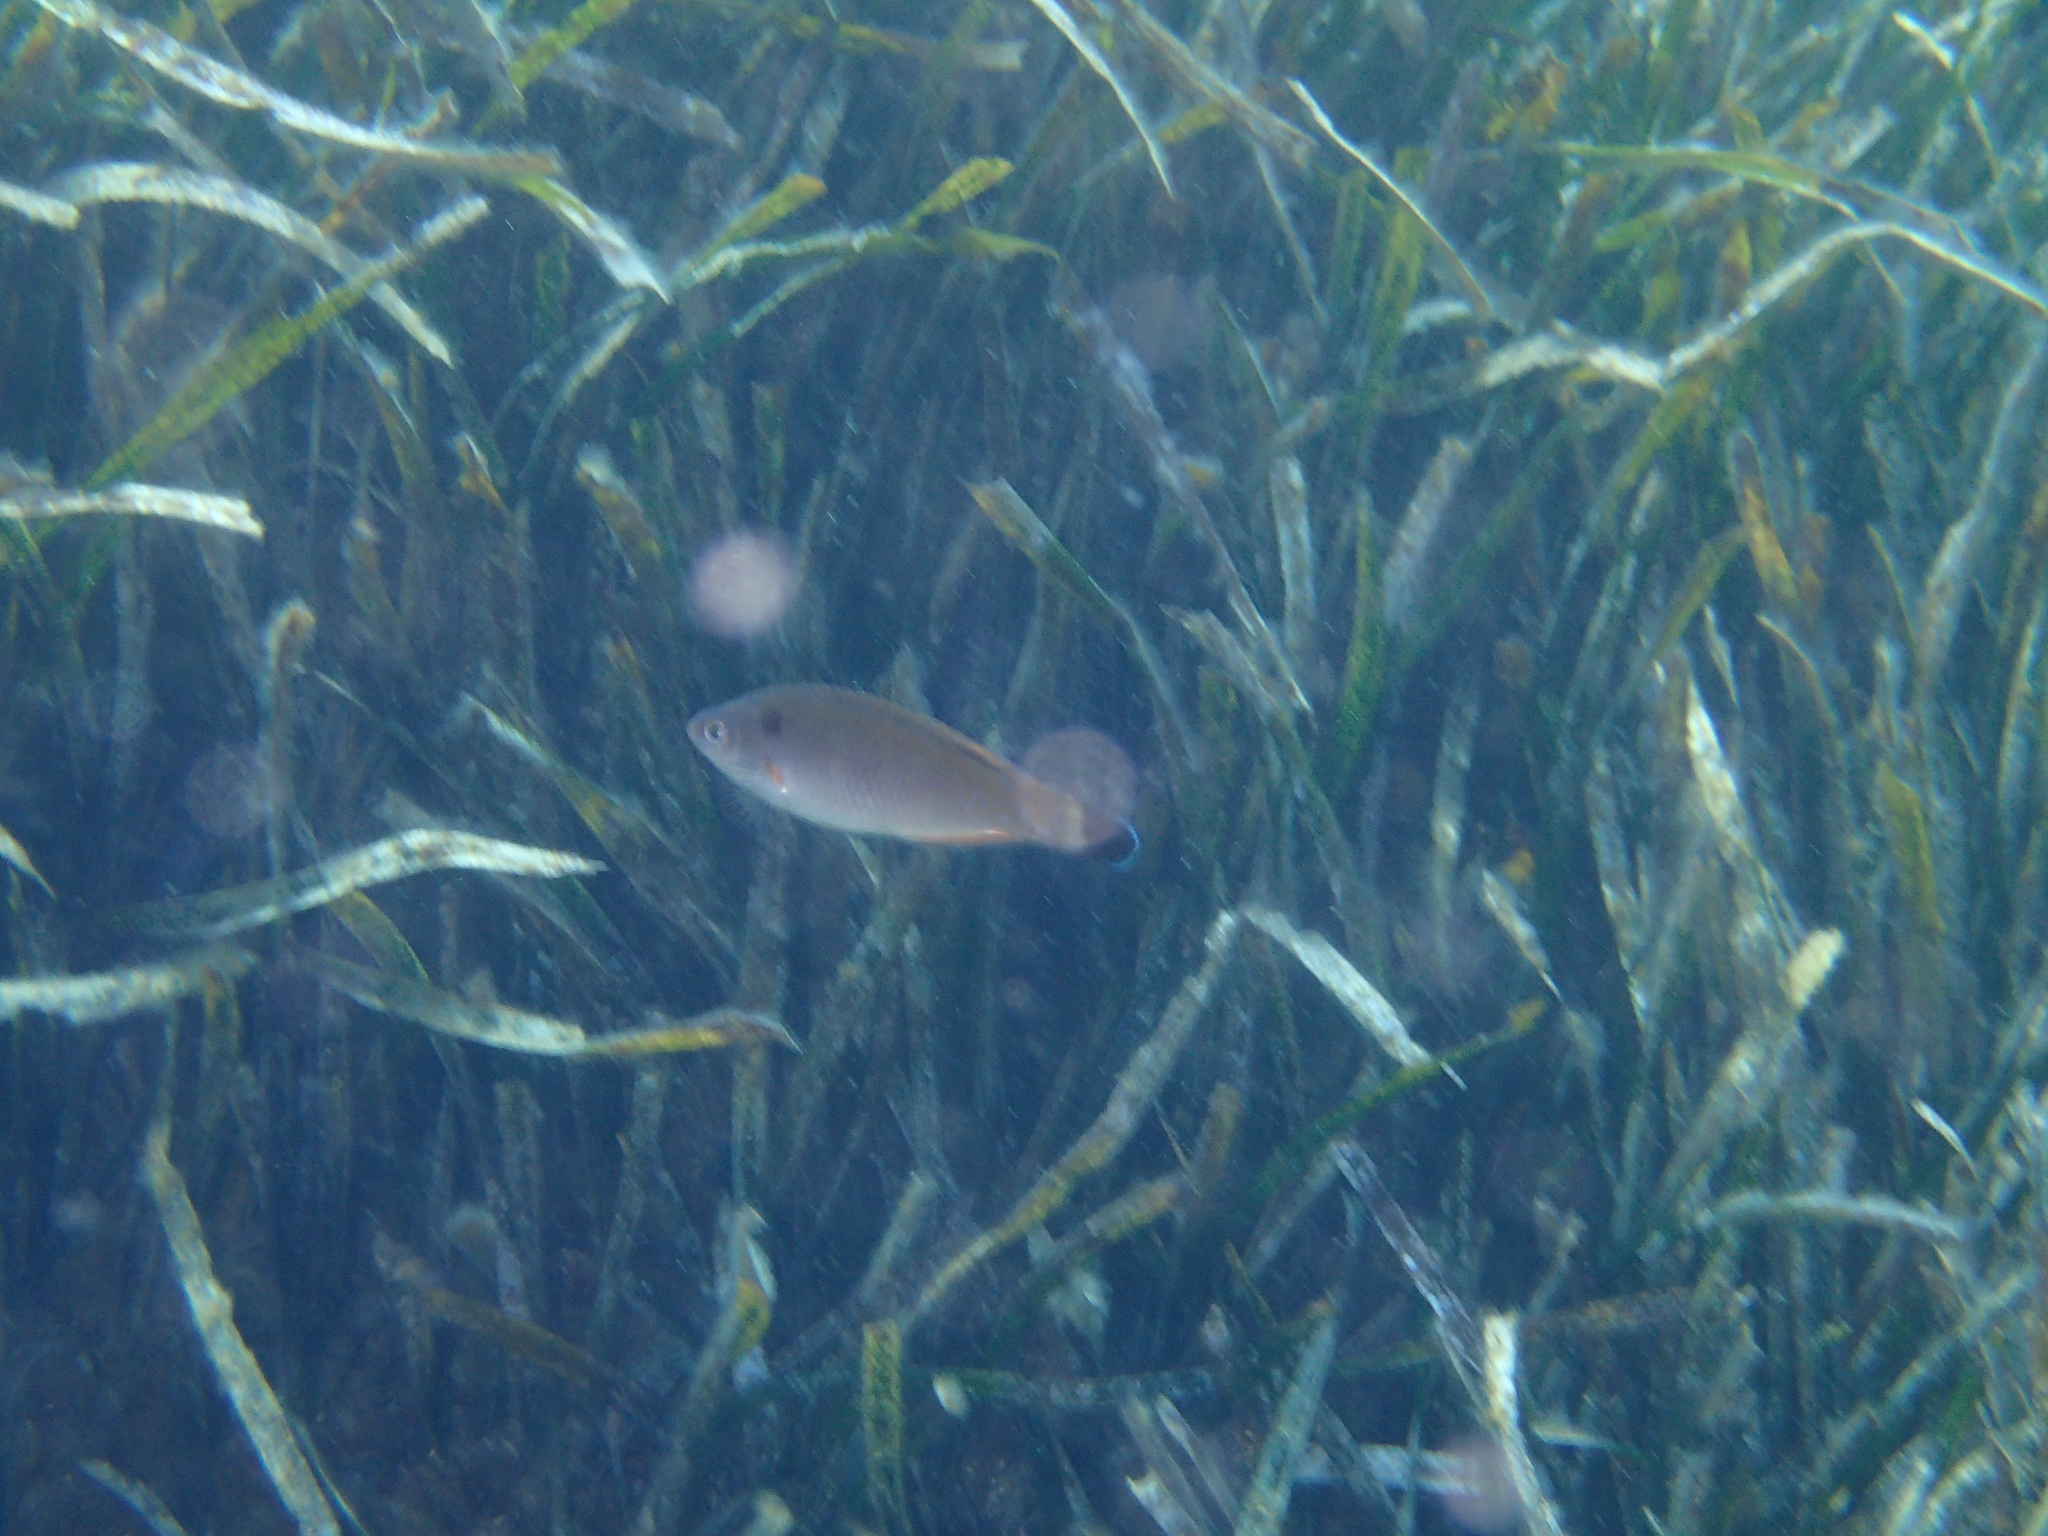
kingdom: Animalia
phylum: Chordata
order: Perciformes
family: Labridae
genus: Centrolabrus
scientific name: Centrolabrus melanocercus
